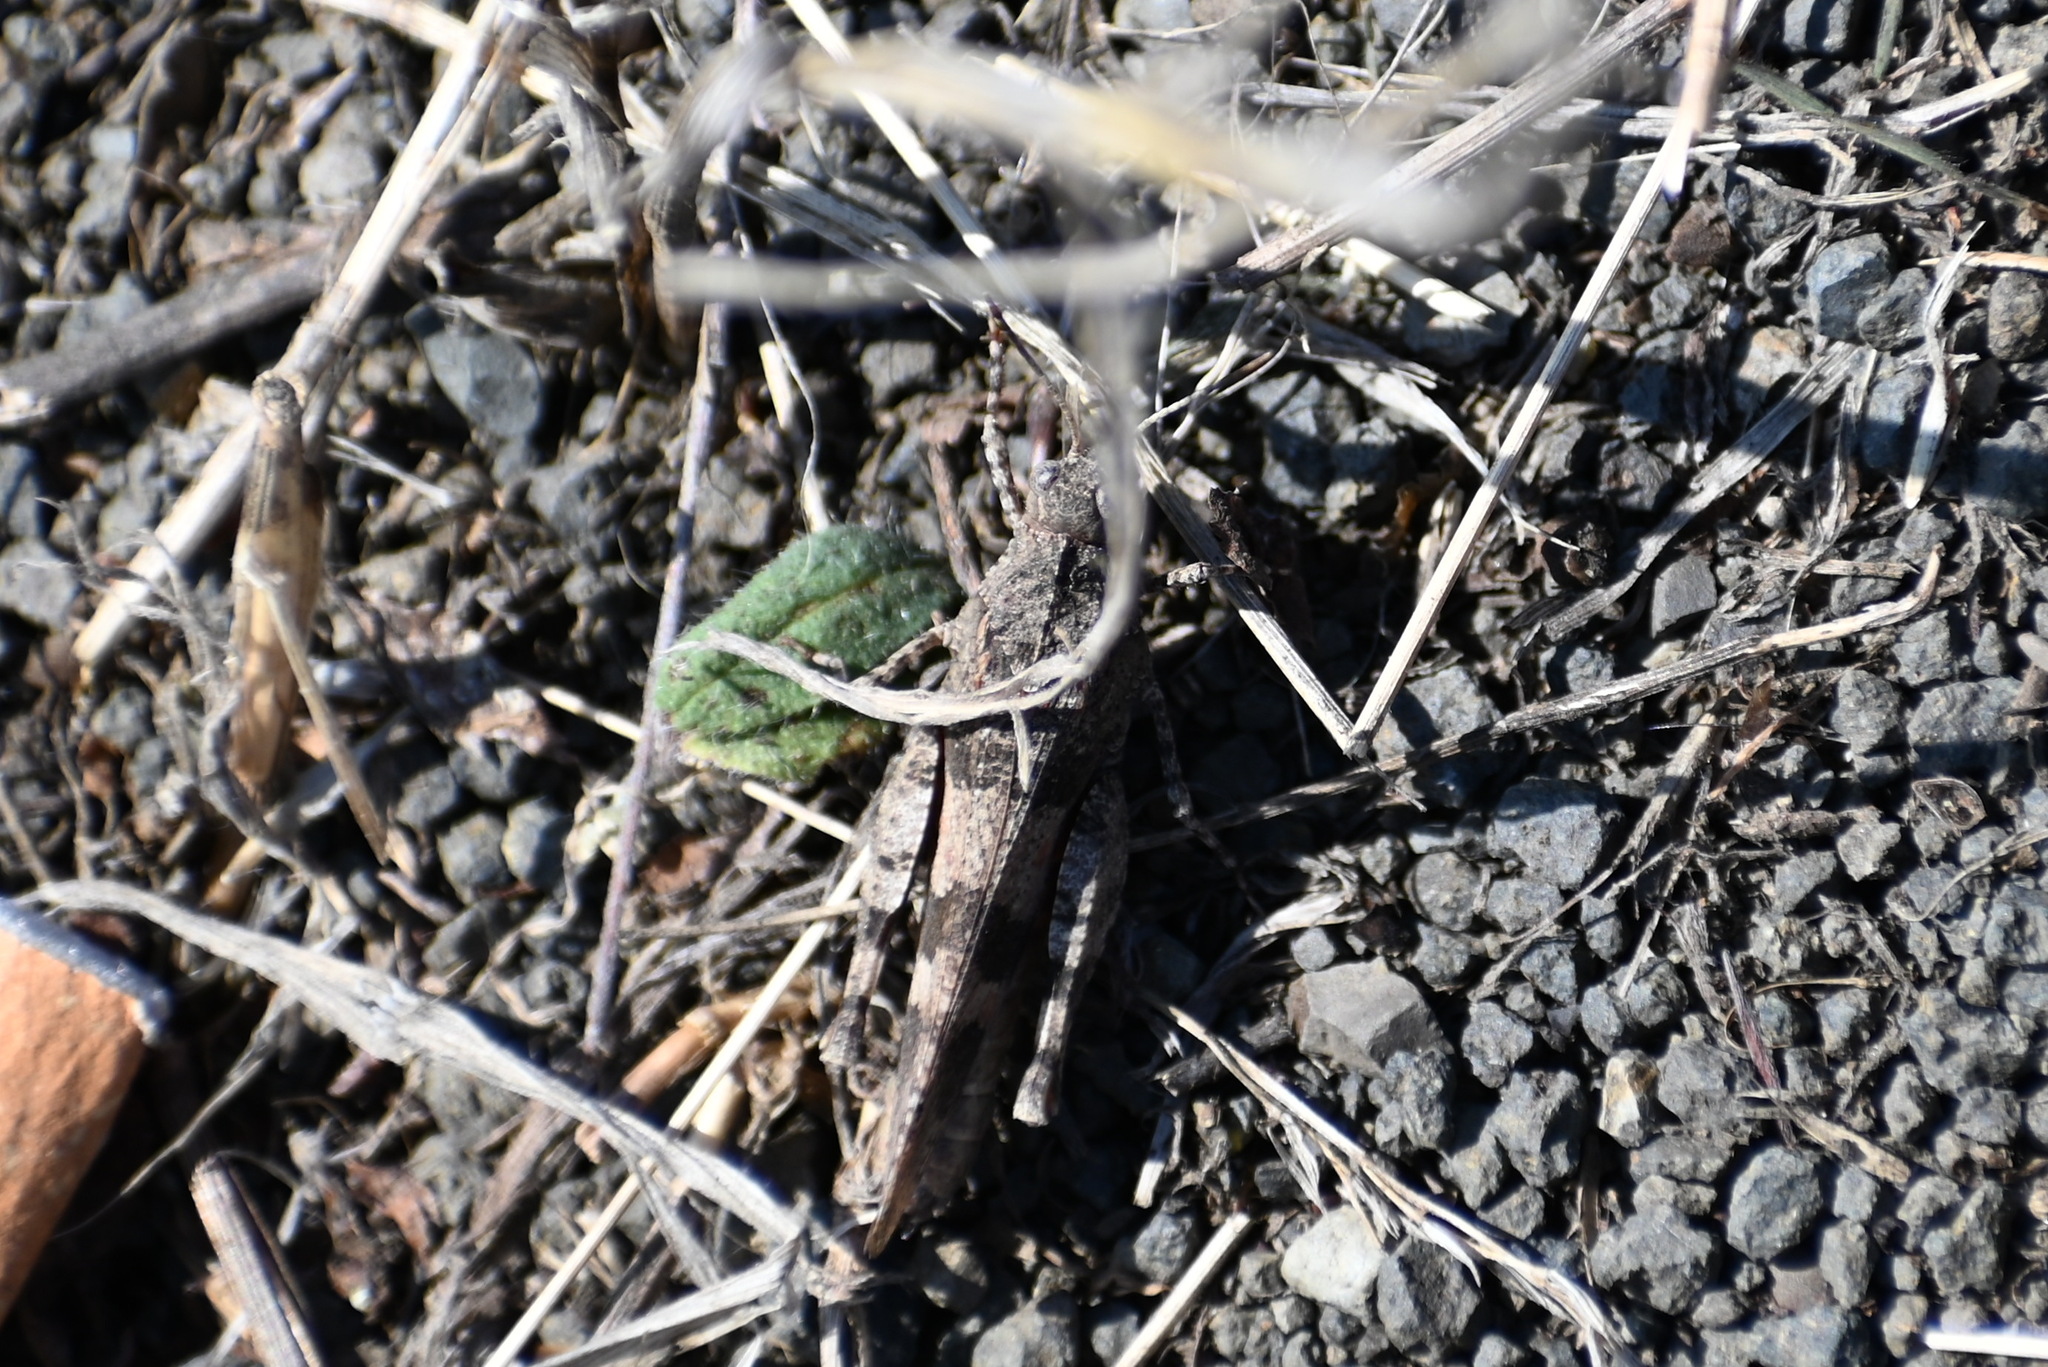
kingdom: Animalia
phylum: Arthropoda
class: Insecta
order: Orthoptera
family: Acrididae
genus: Oedipoda
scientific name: Oedipoda caerulescens
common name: Blue-winged grasshopper
